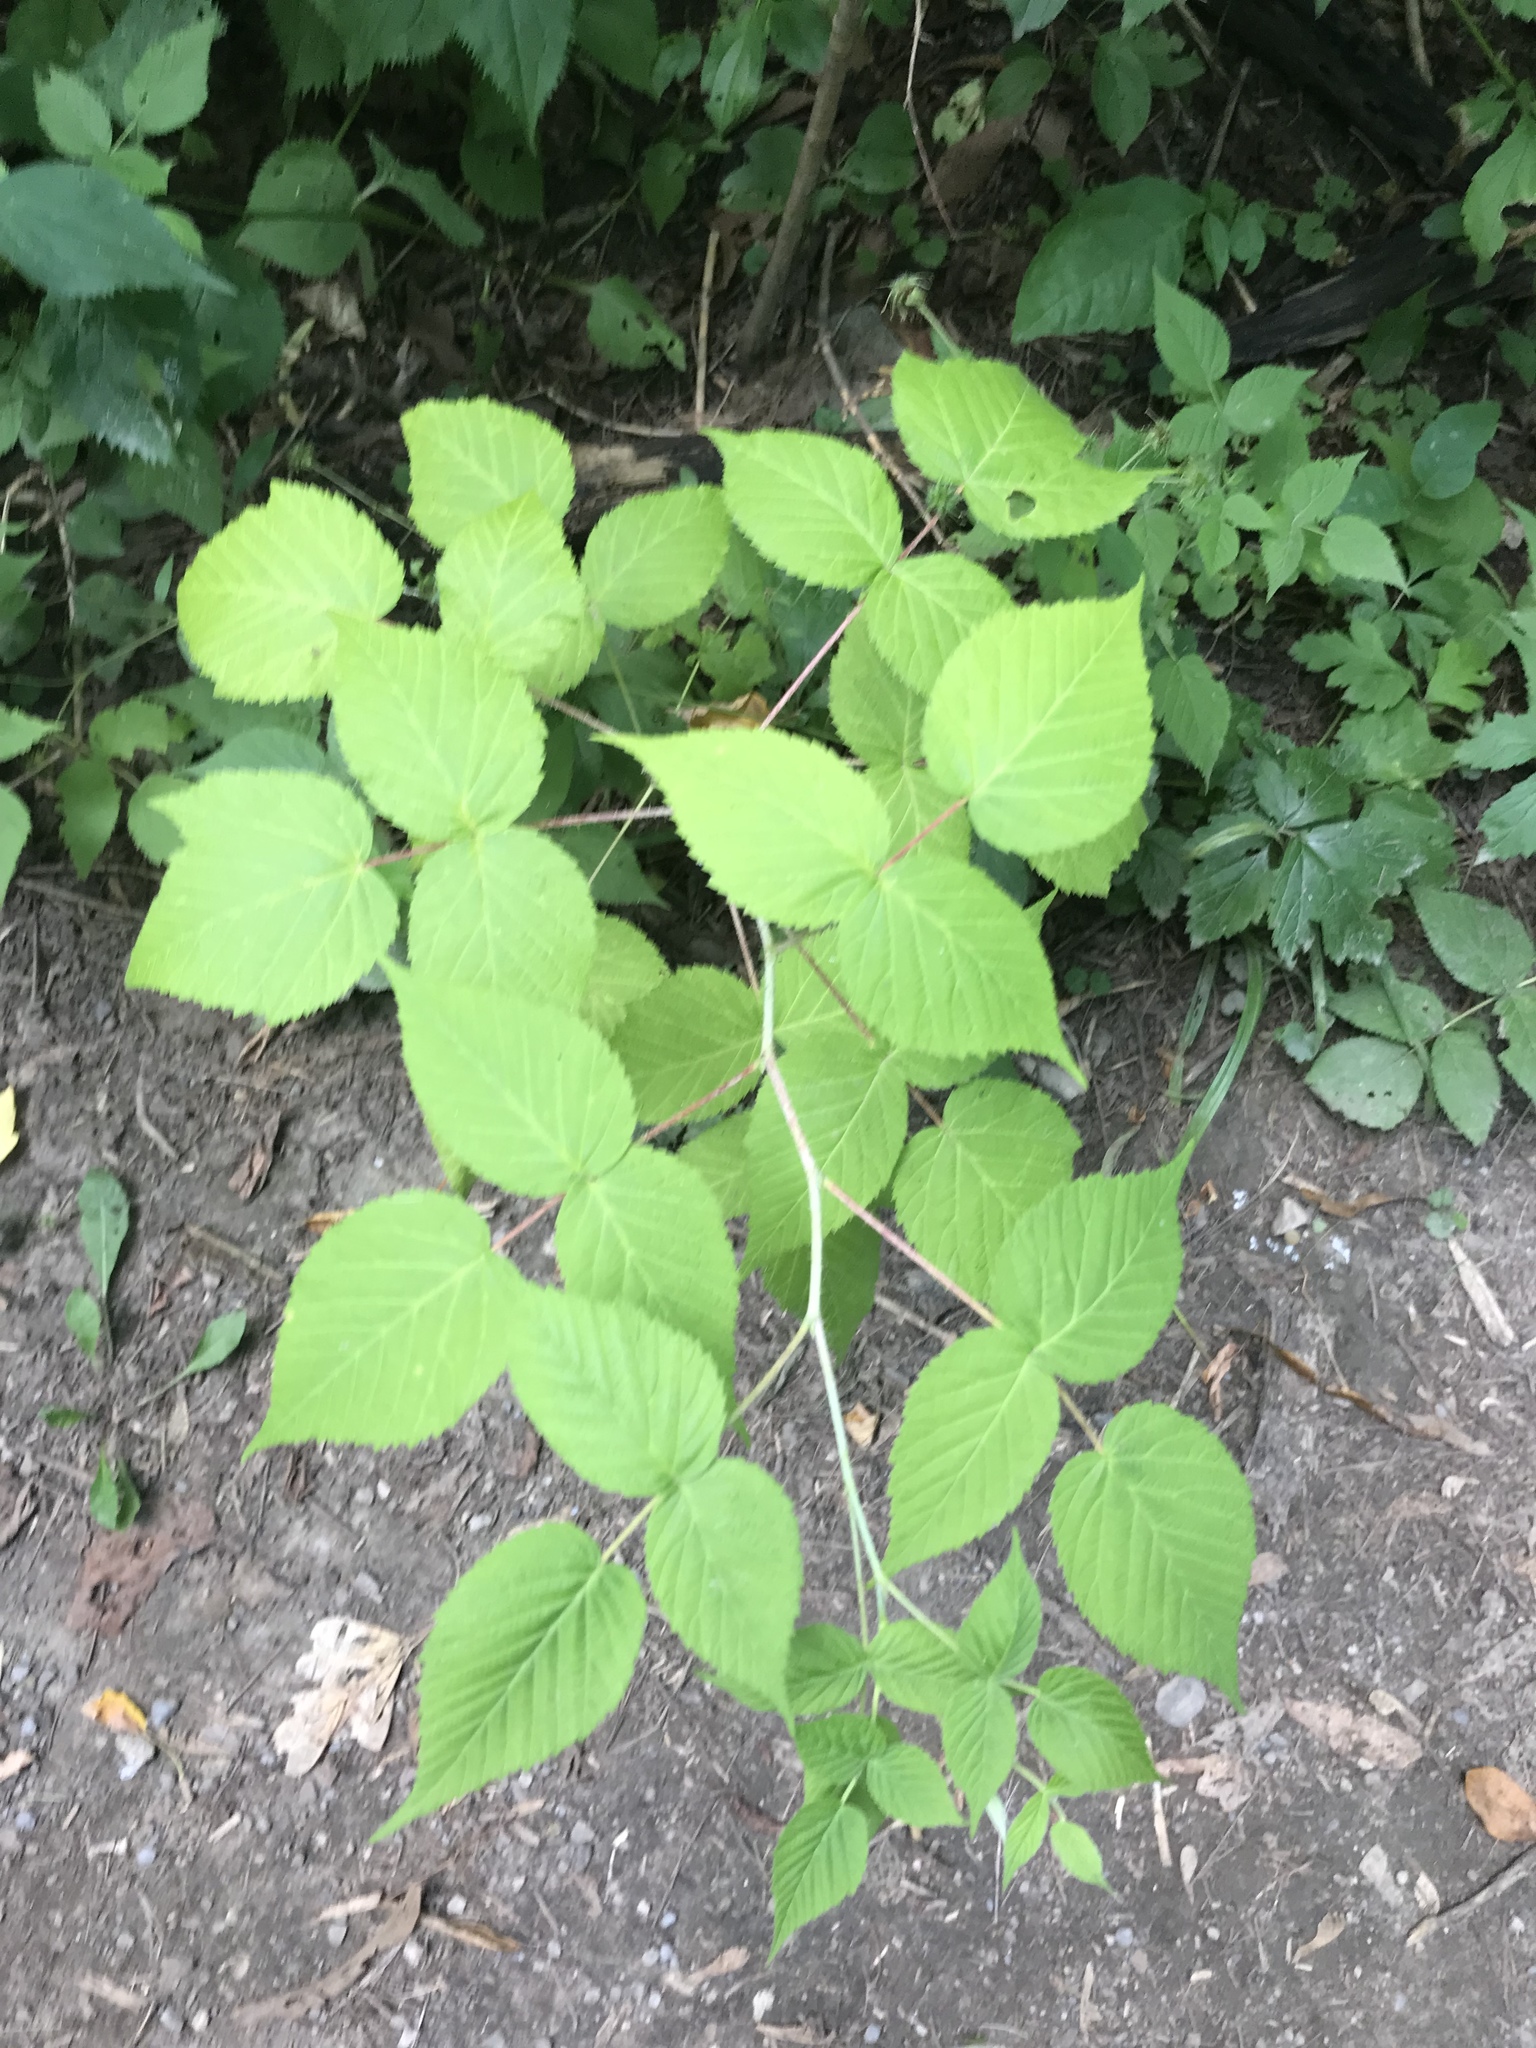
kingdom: Plantae
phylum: Tracheophyta
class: Magnoliopsida
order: Rosales
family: Rosaceae
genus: Rubus
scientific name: Rubus idaeus
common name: Raspberry
